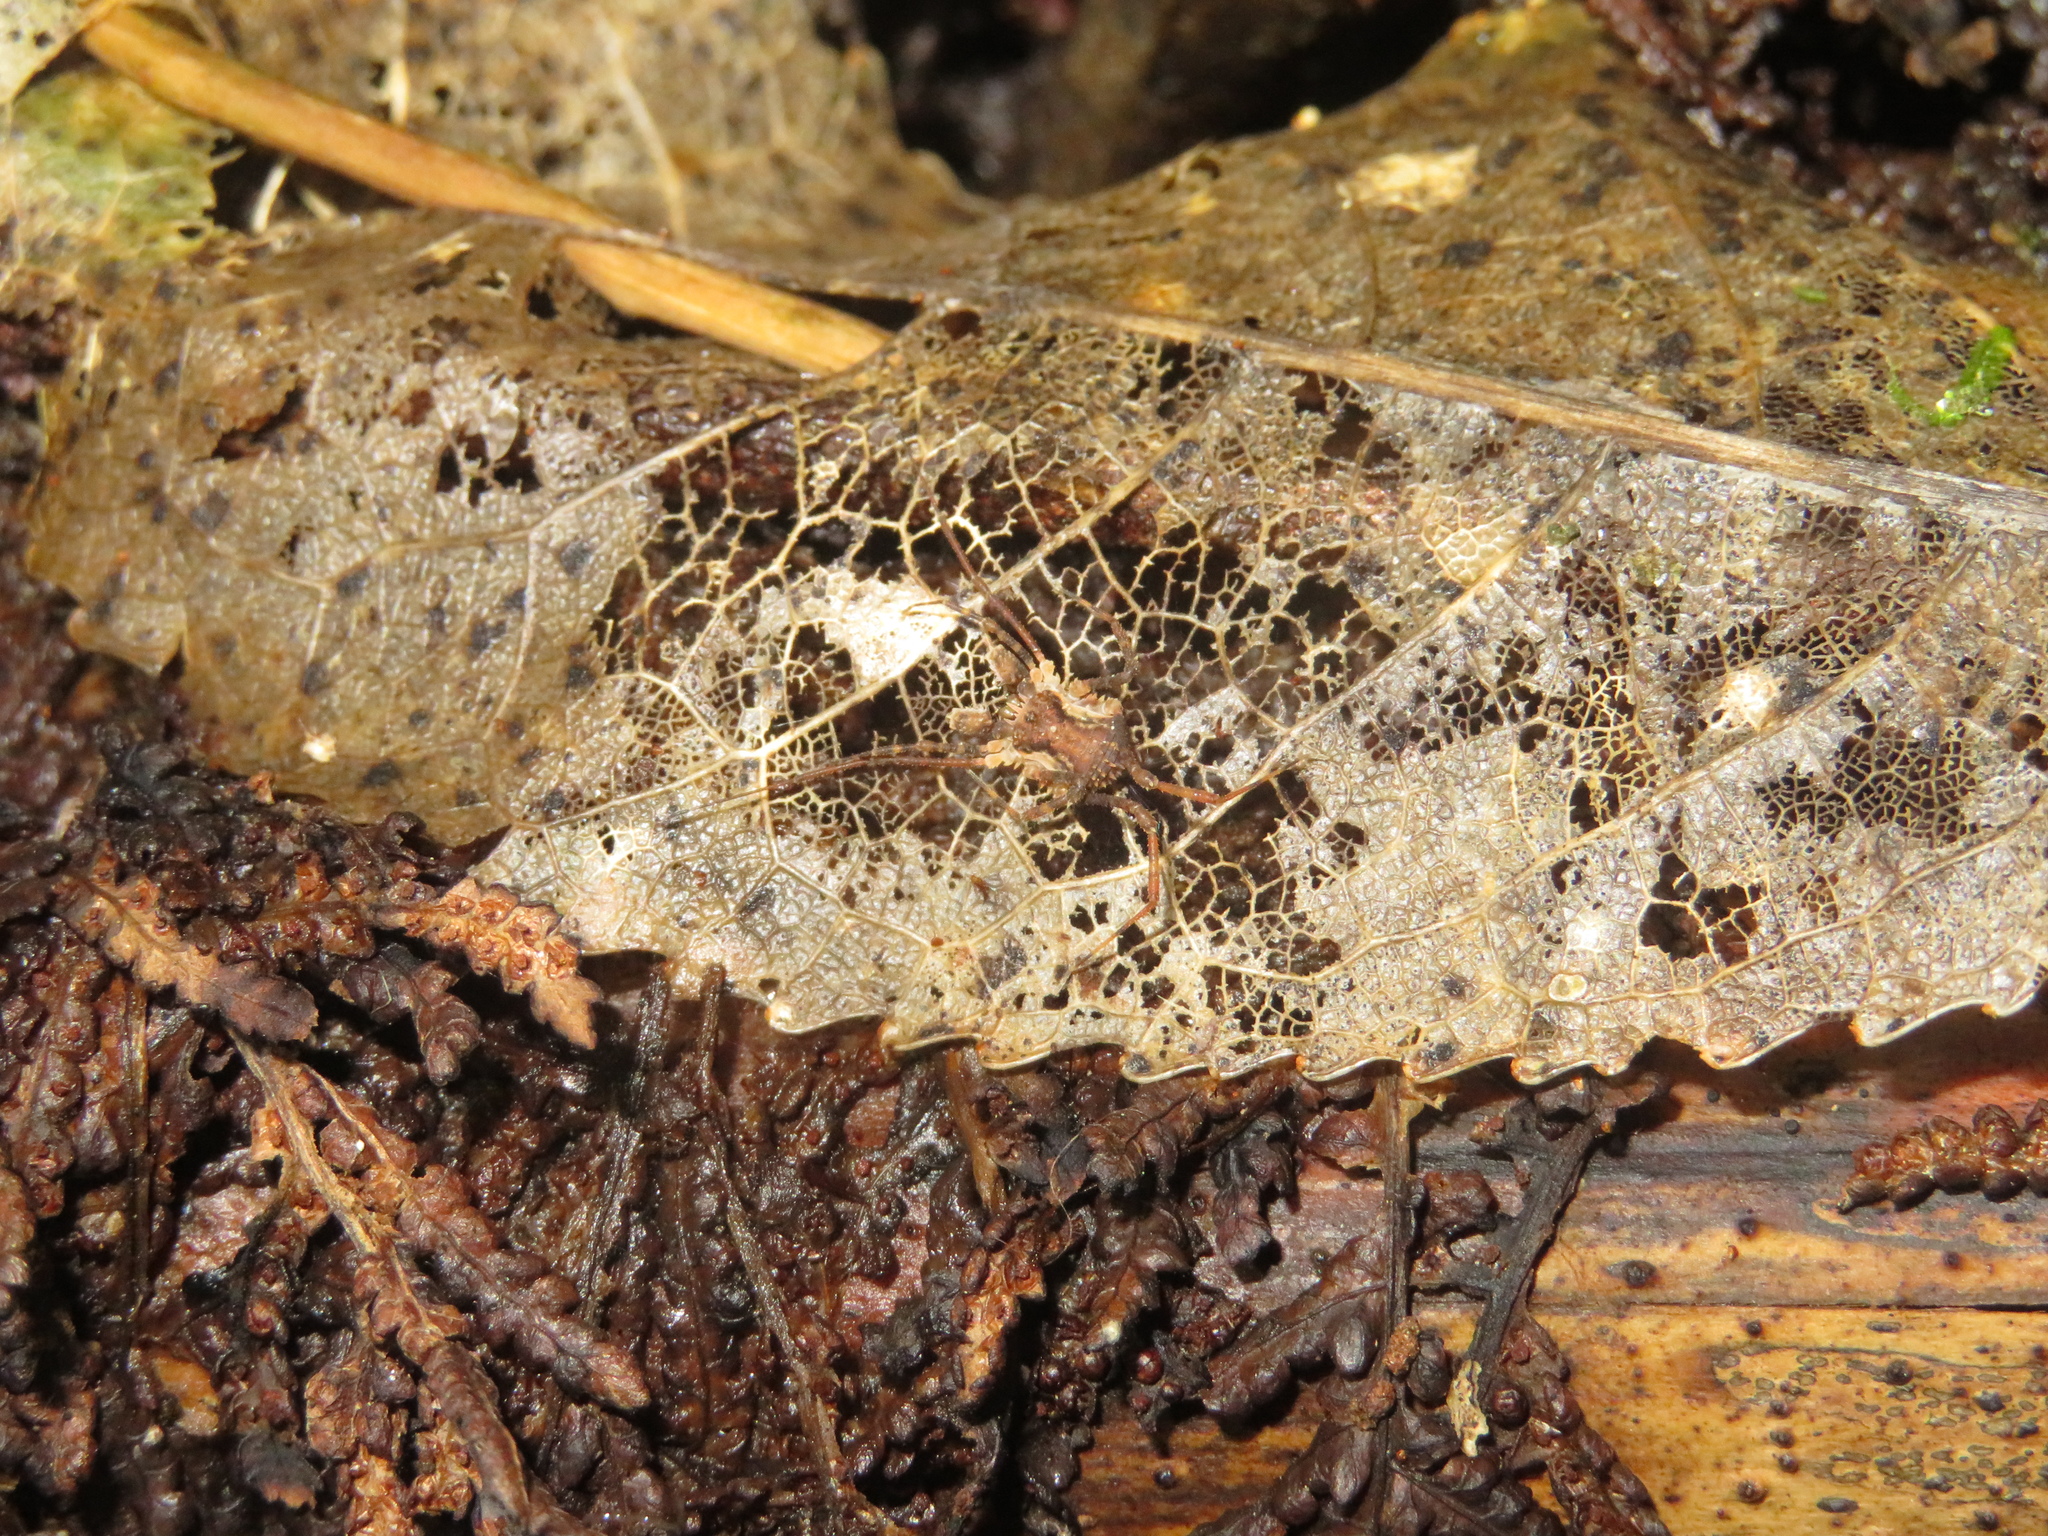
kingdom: Animalia
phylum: Arthropoda
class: Arachnida
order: Opiliones
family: Triaenonychidae
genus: Algidia
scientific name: Algidia nigriflava
